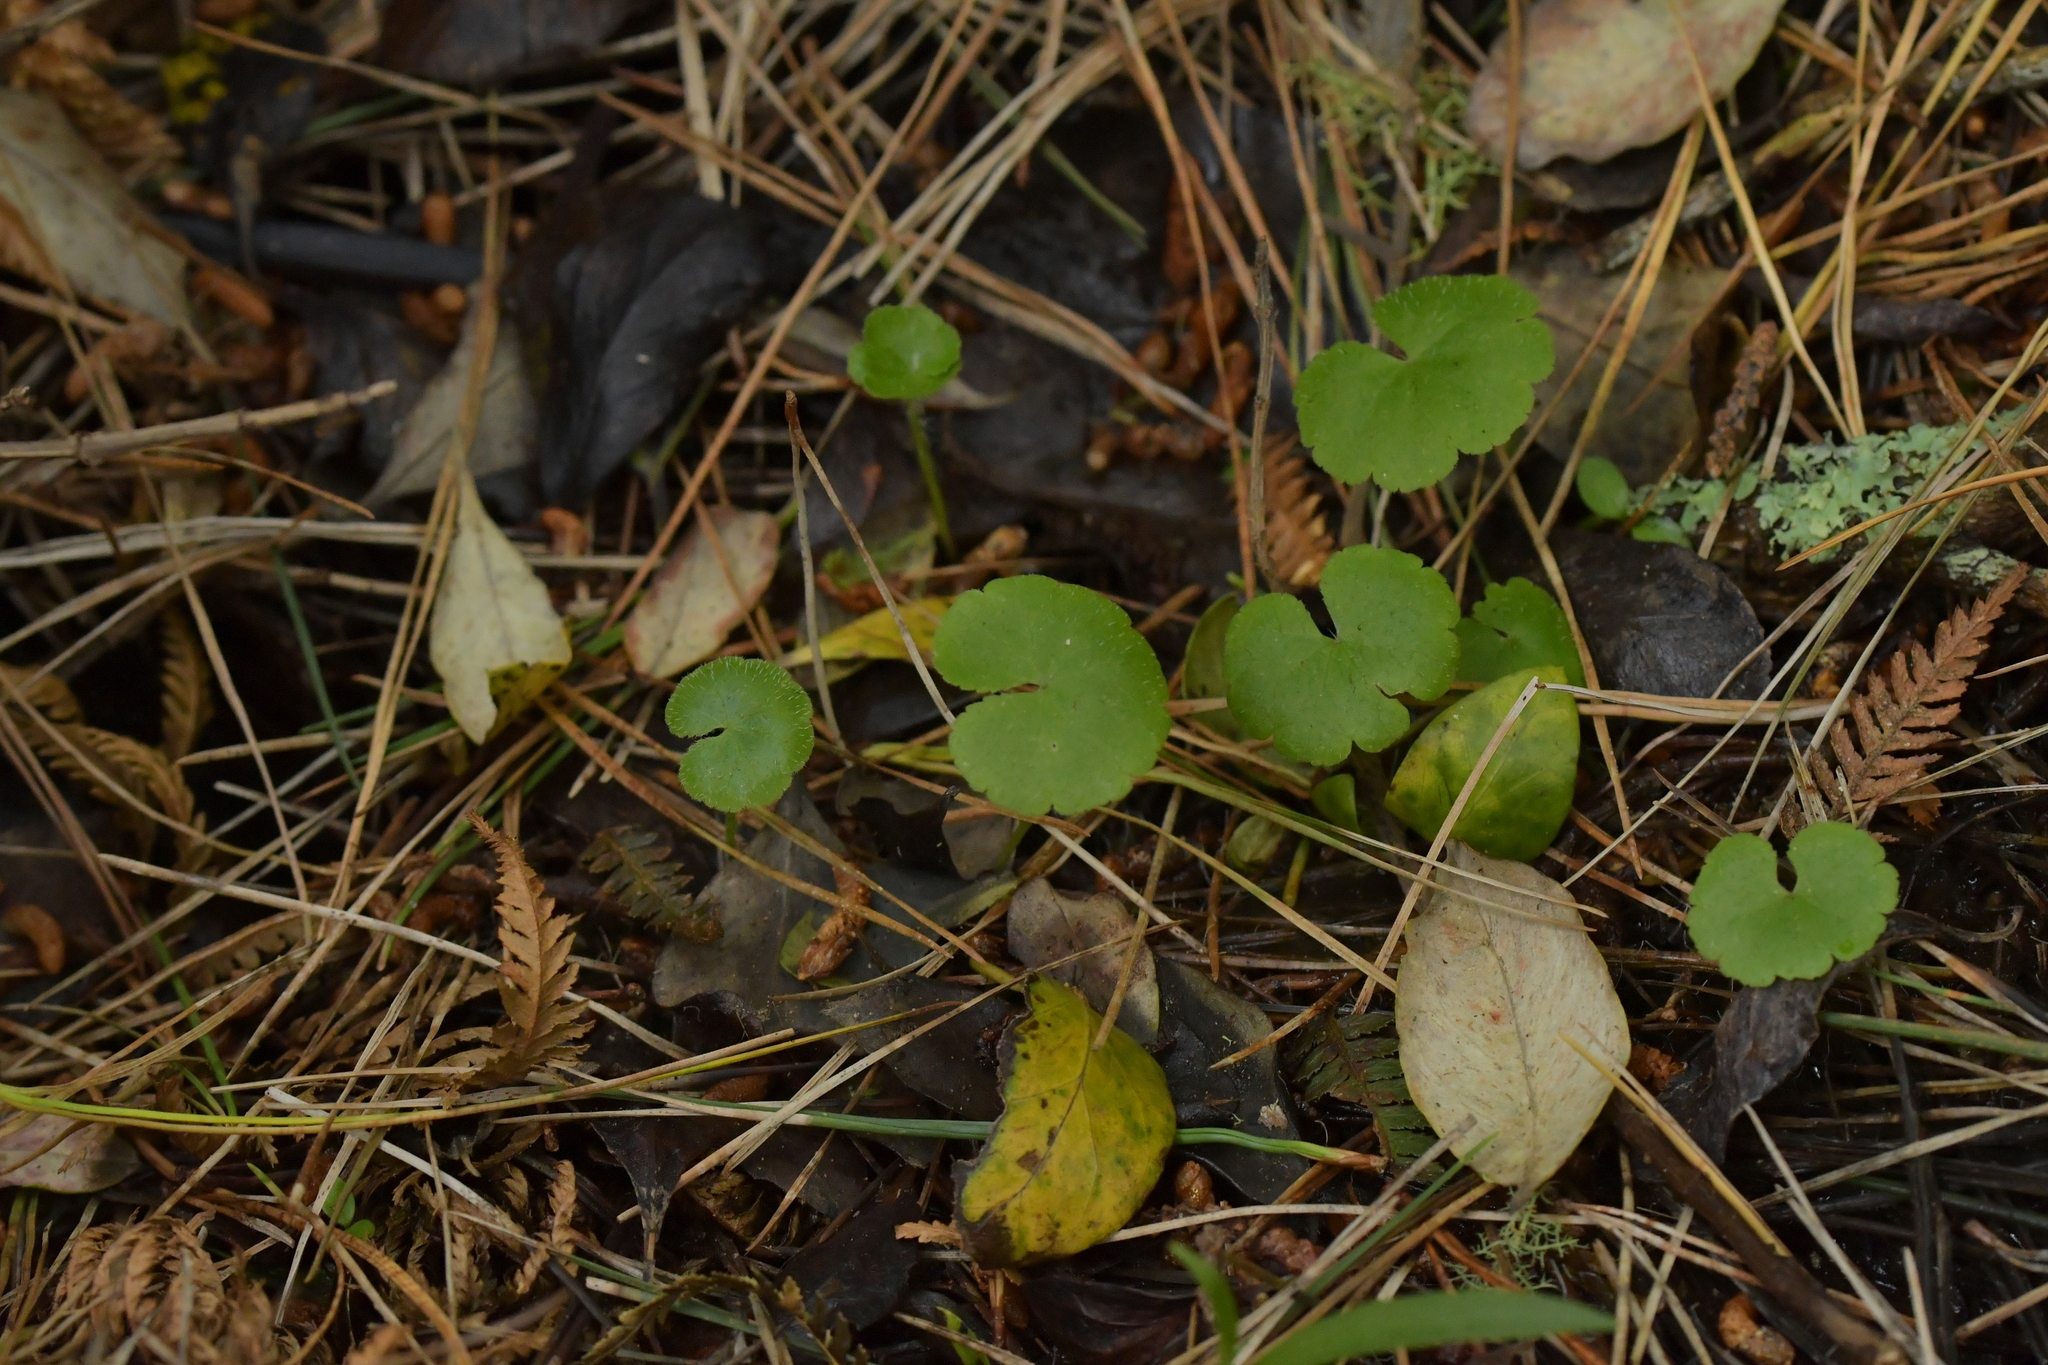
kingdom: Plantae
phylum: Tracheophyta
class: Magnoliopsida
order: Apiales
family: Araliaceae
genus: Hydrocotyle
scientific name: Hydrocotyle robusta
